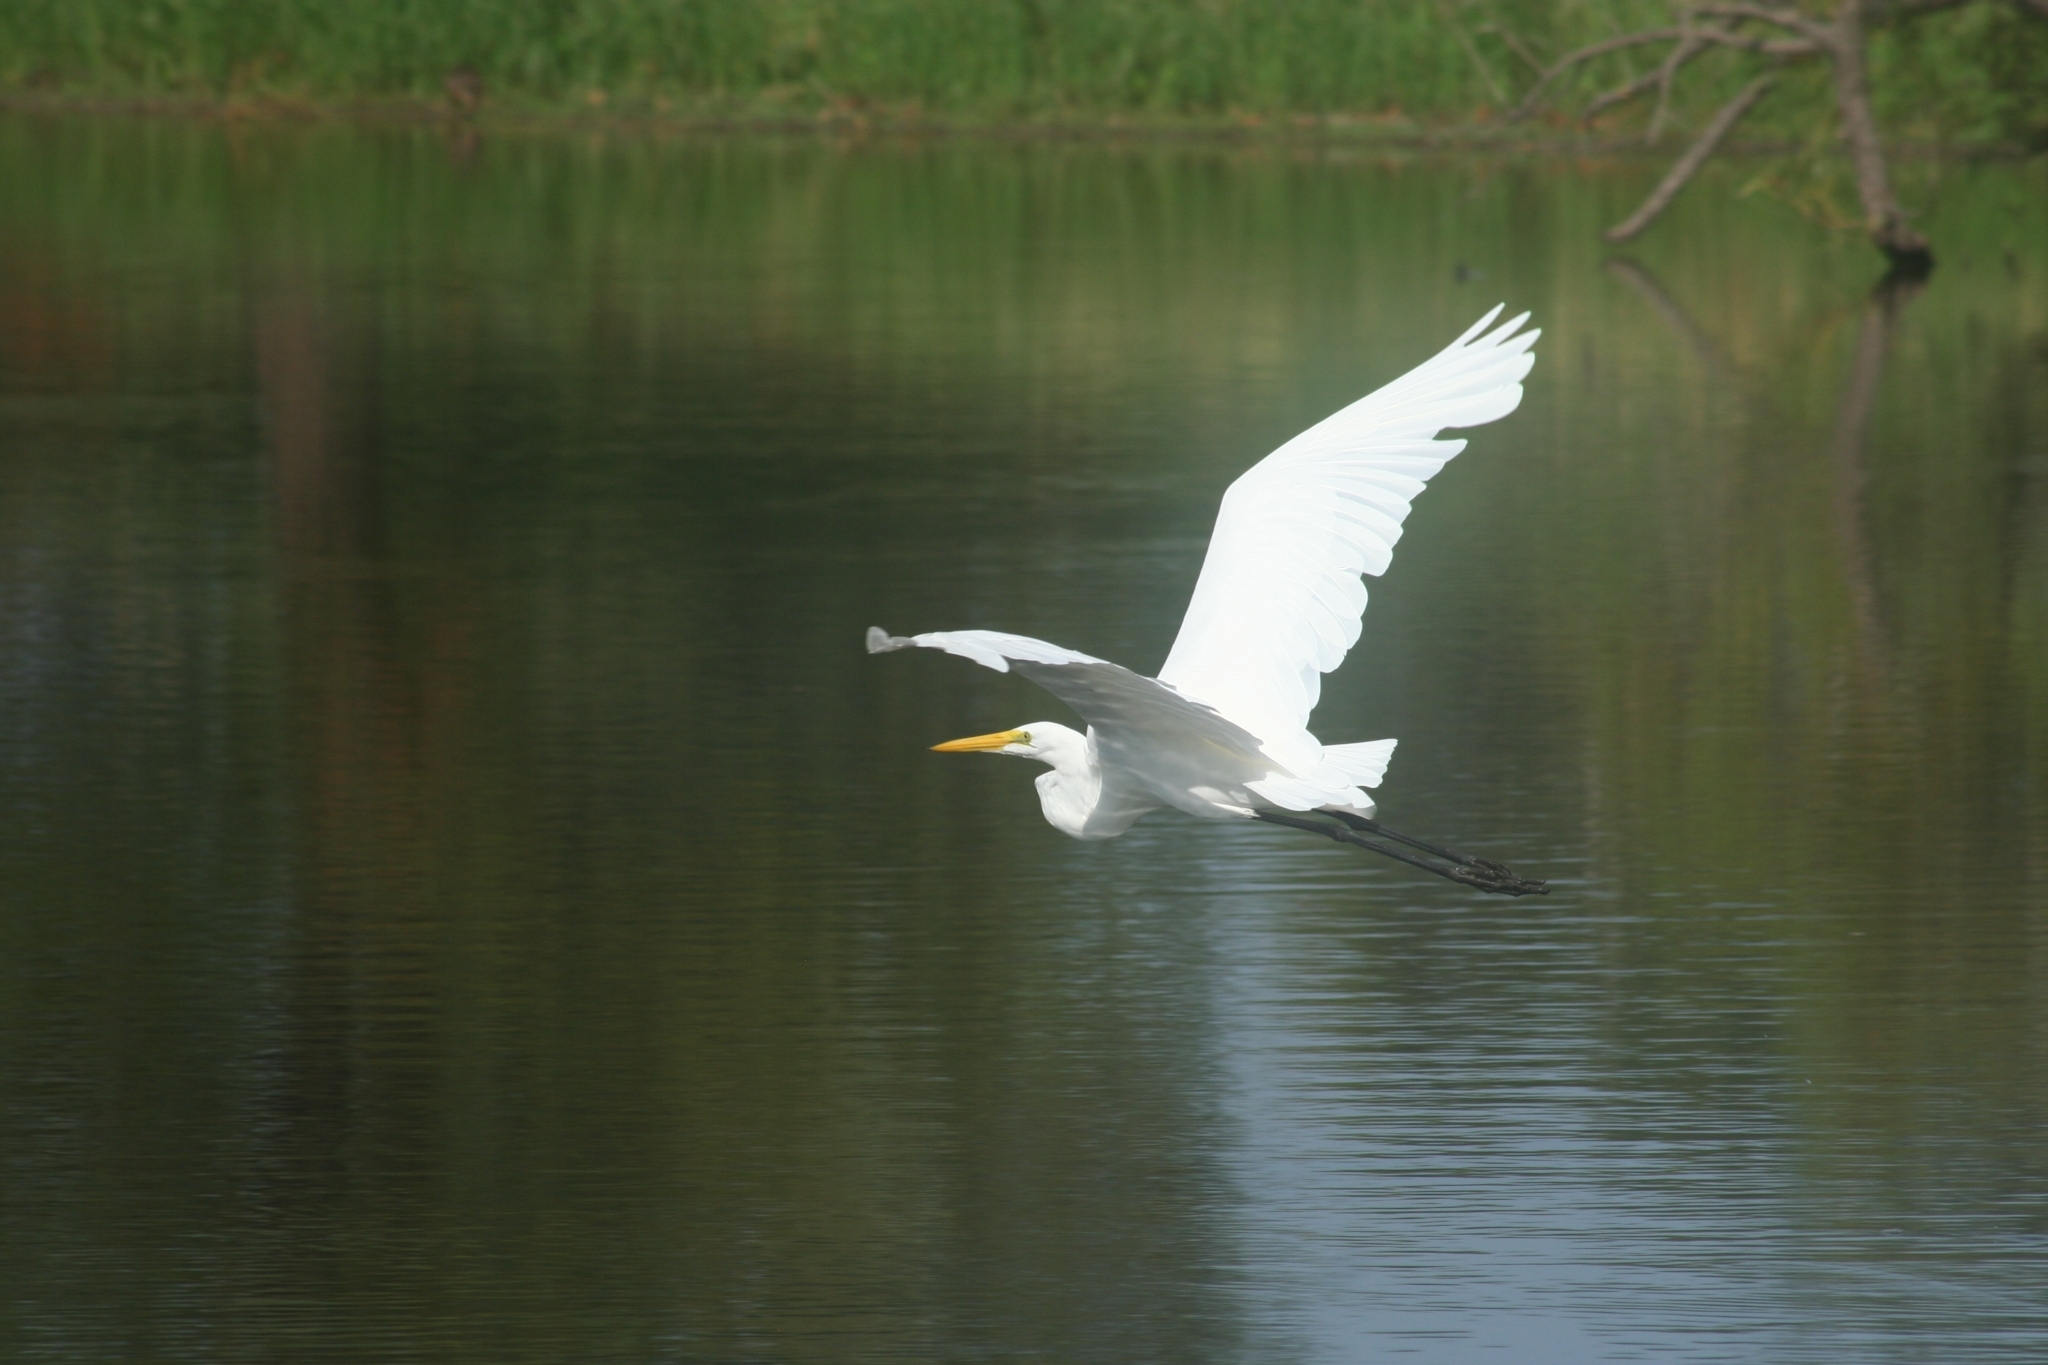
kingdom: Animalia
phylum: Chordata
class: Aves
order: Pelecaniformes
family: Ardeidae
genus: Ardea
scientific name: Ardea alba
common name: Great egret
